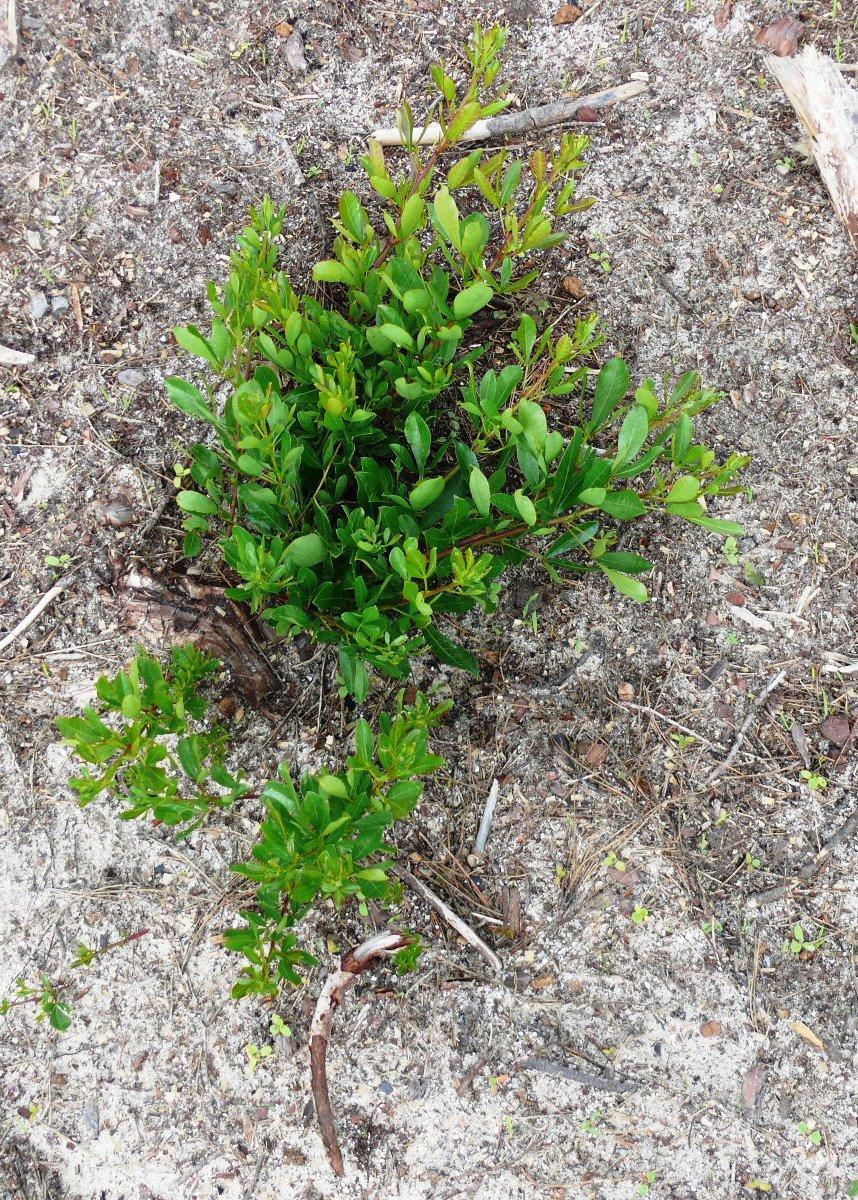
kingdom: Plantae
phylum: Tracheophyta
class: Magnoliopsida
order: Sapindales
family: Anacardiaceae
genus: Searsia
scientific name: Searsia laevigata
